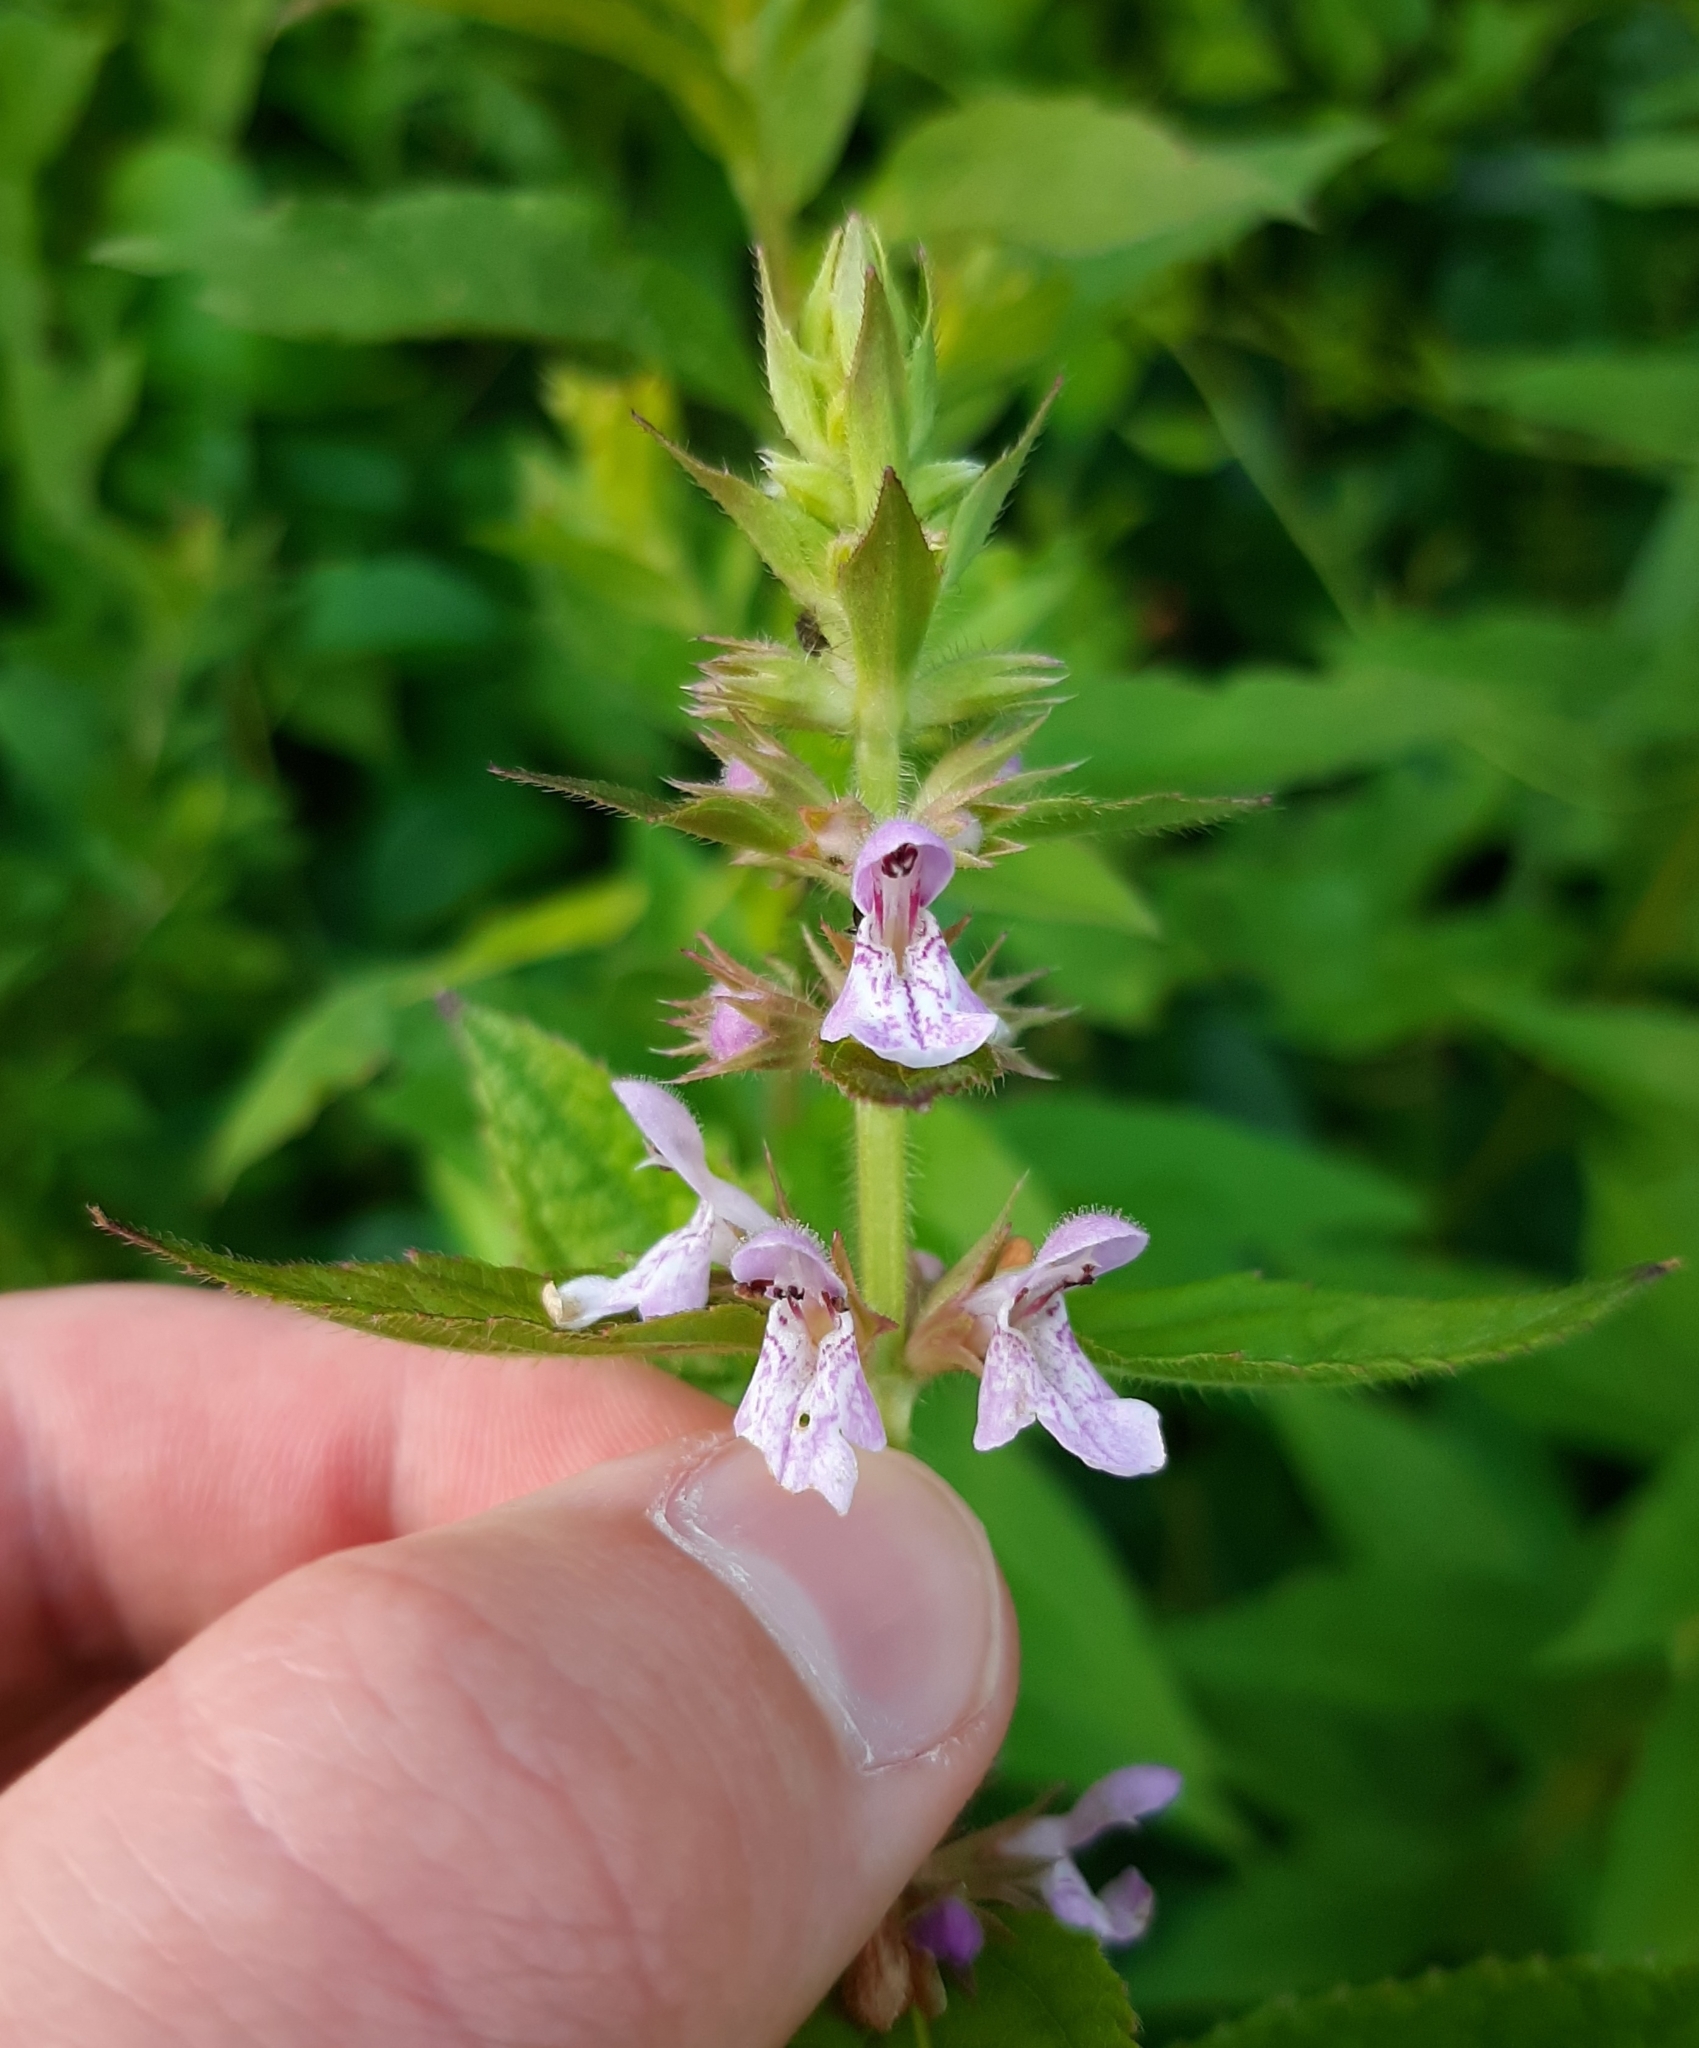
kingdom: Plantae
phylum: Tracheophyta
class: Magnoliopsida
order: Lamiales
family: Lamiaceae
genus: Stachys
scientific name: Stachys hispida
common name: Hispid hedge-nettle
